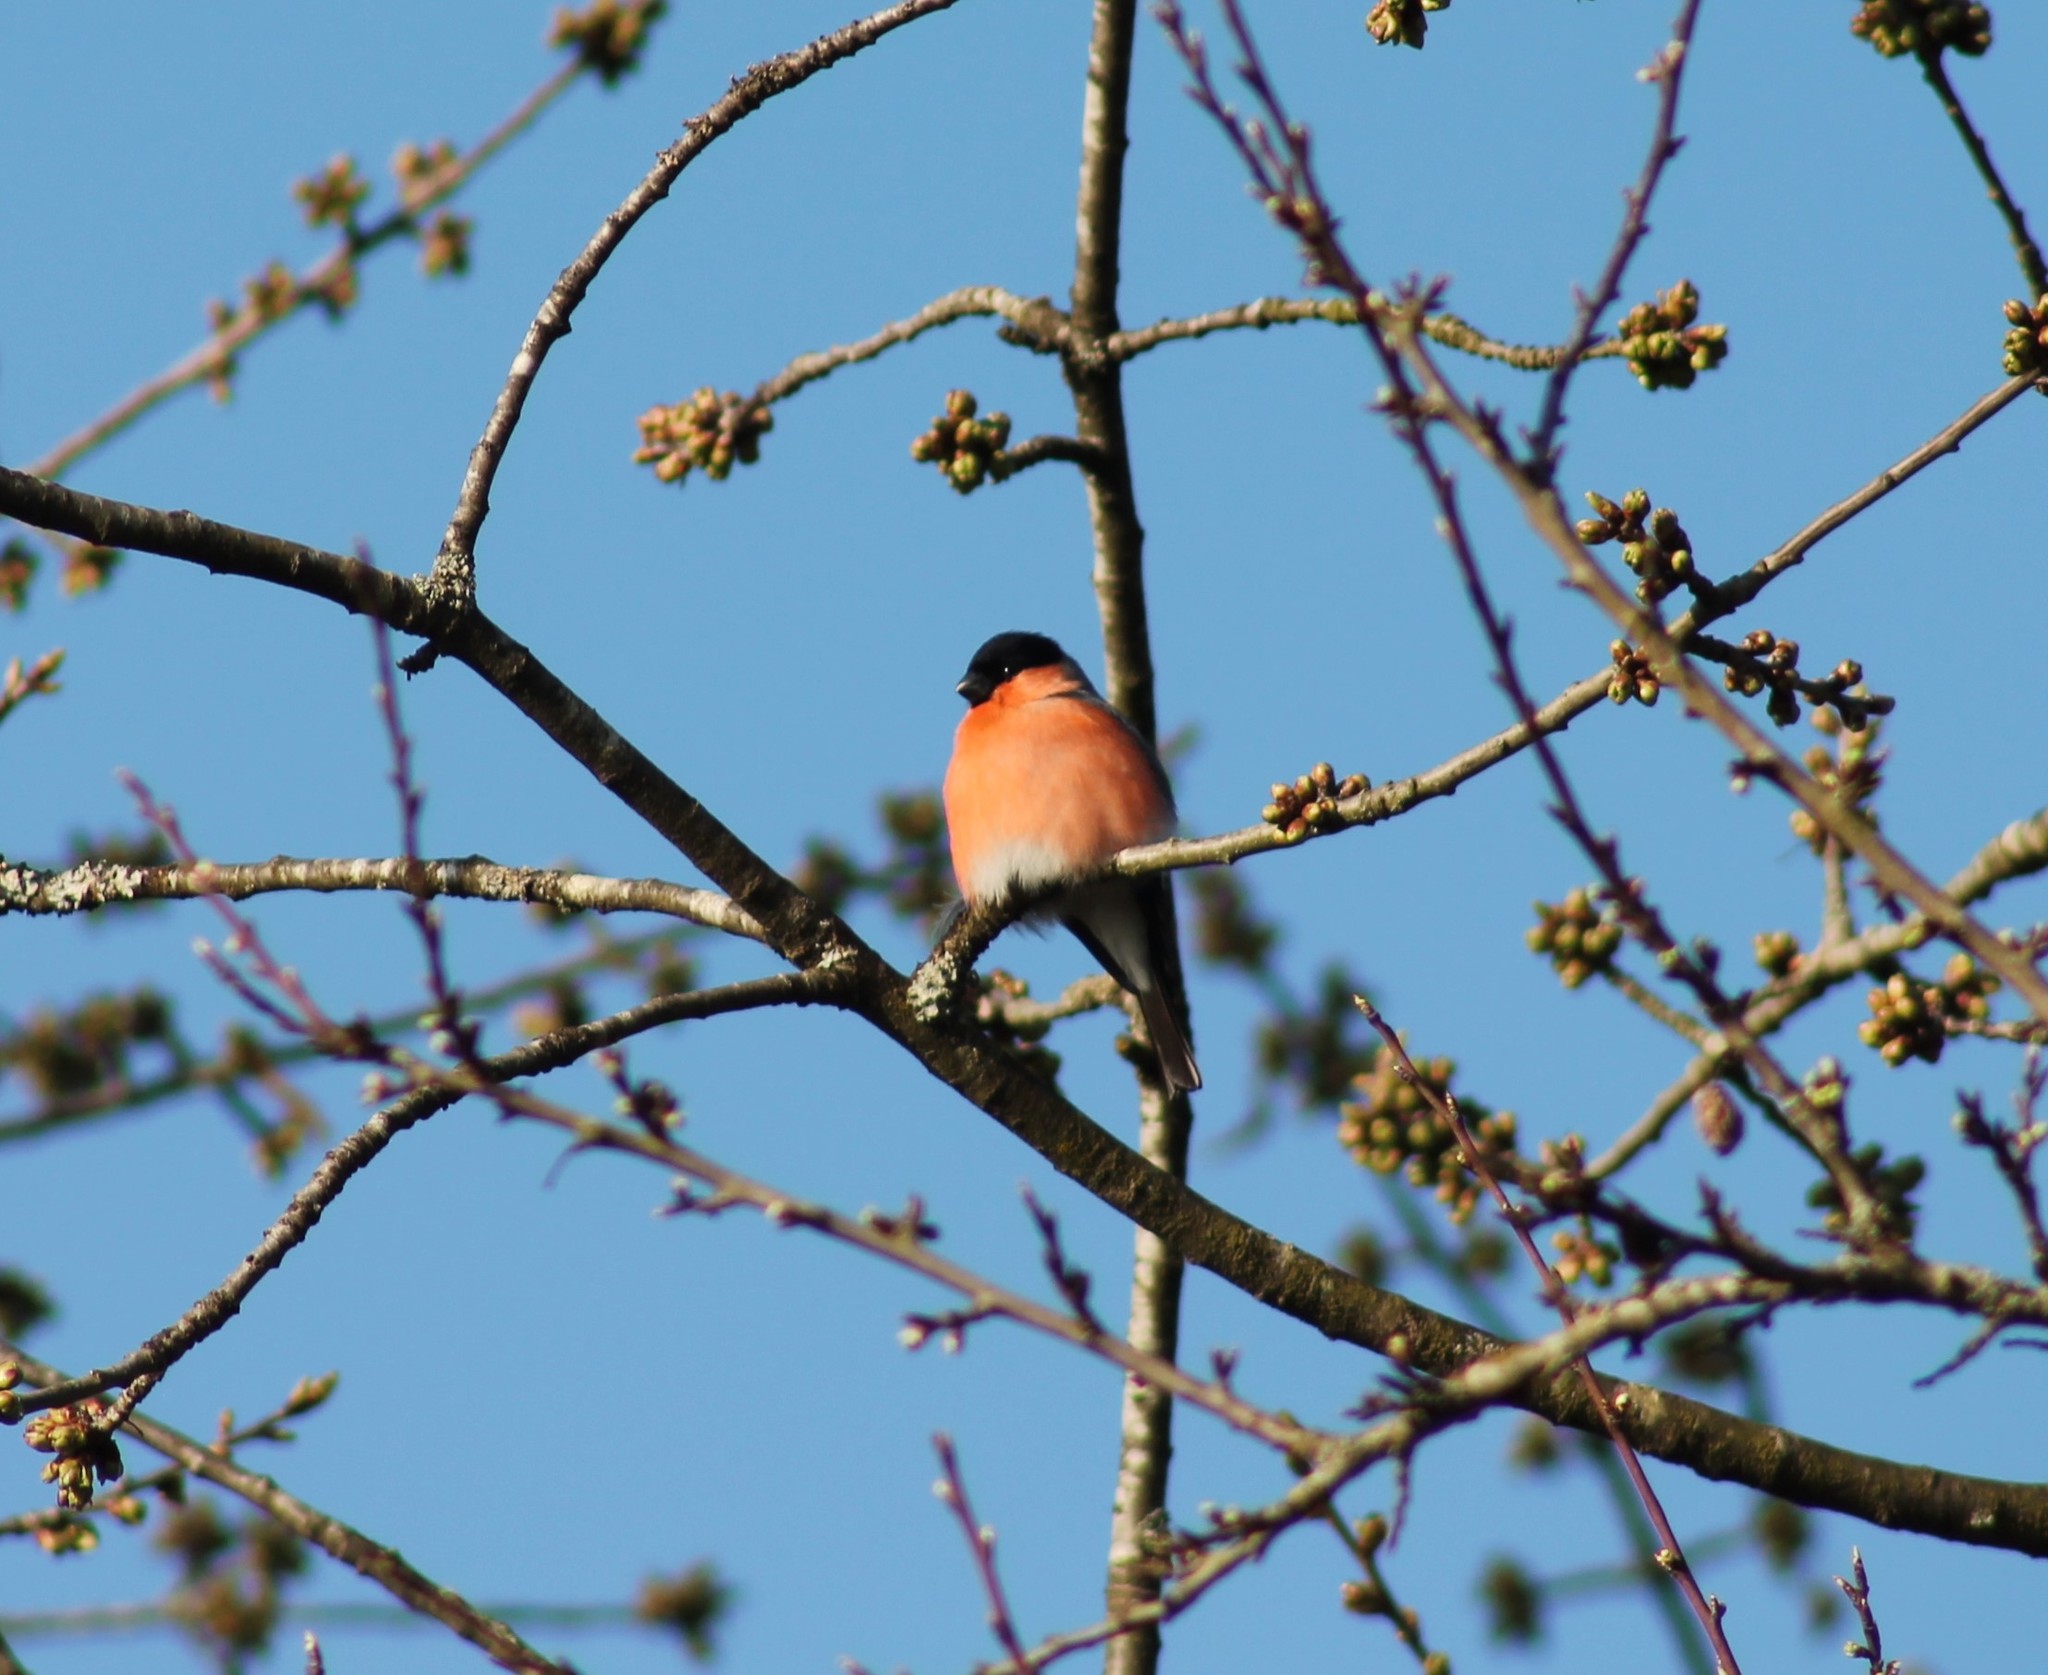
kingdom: Animalia
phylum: Chordata
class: Aves
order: Passeriformes
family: Fringillidae
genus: Pyrrhula
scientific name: Pyrrhula pyrrhula
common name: Eurasian bullfinch
